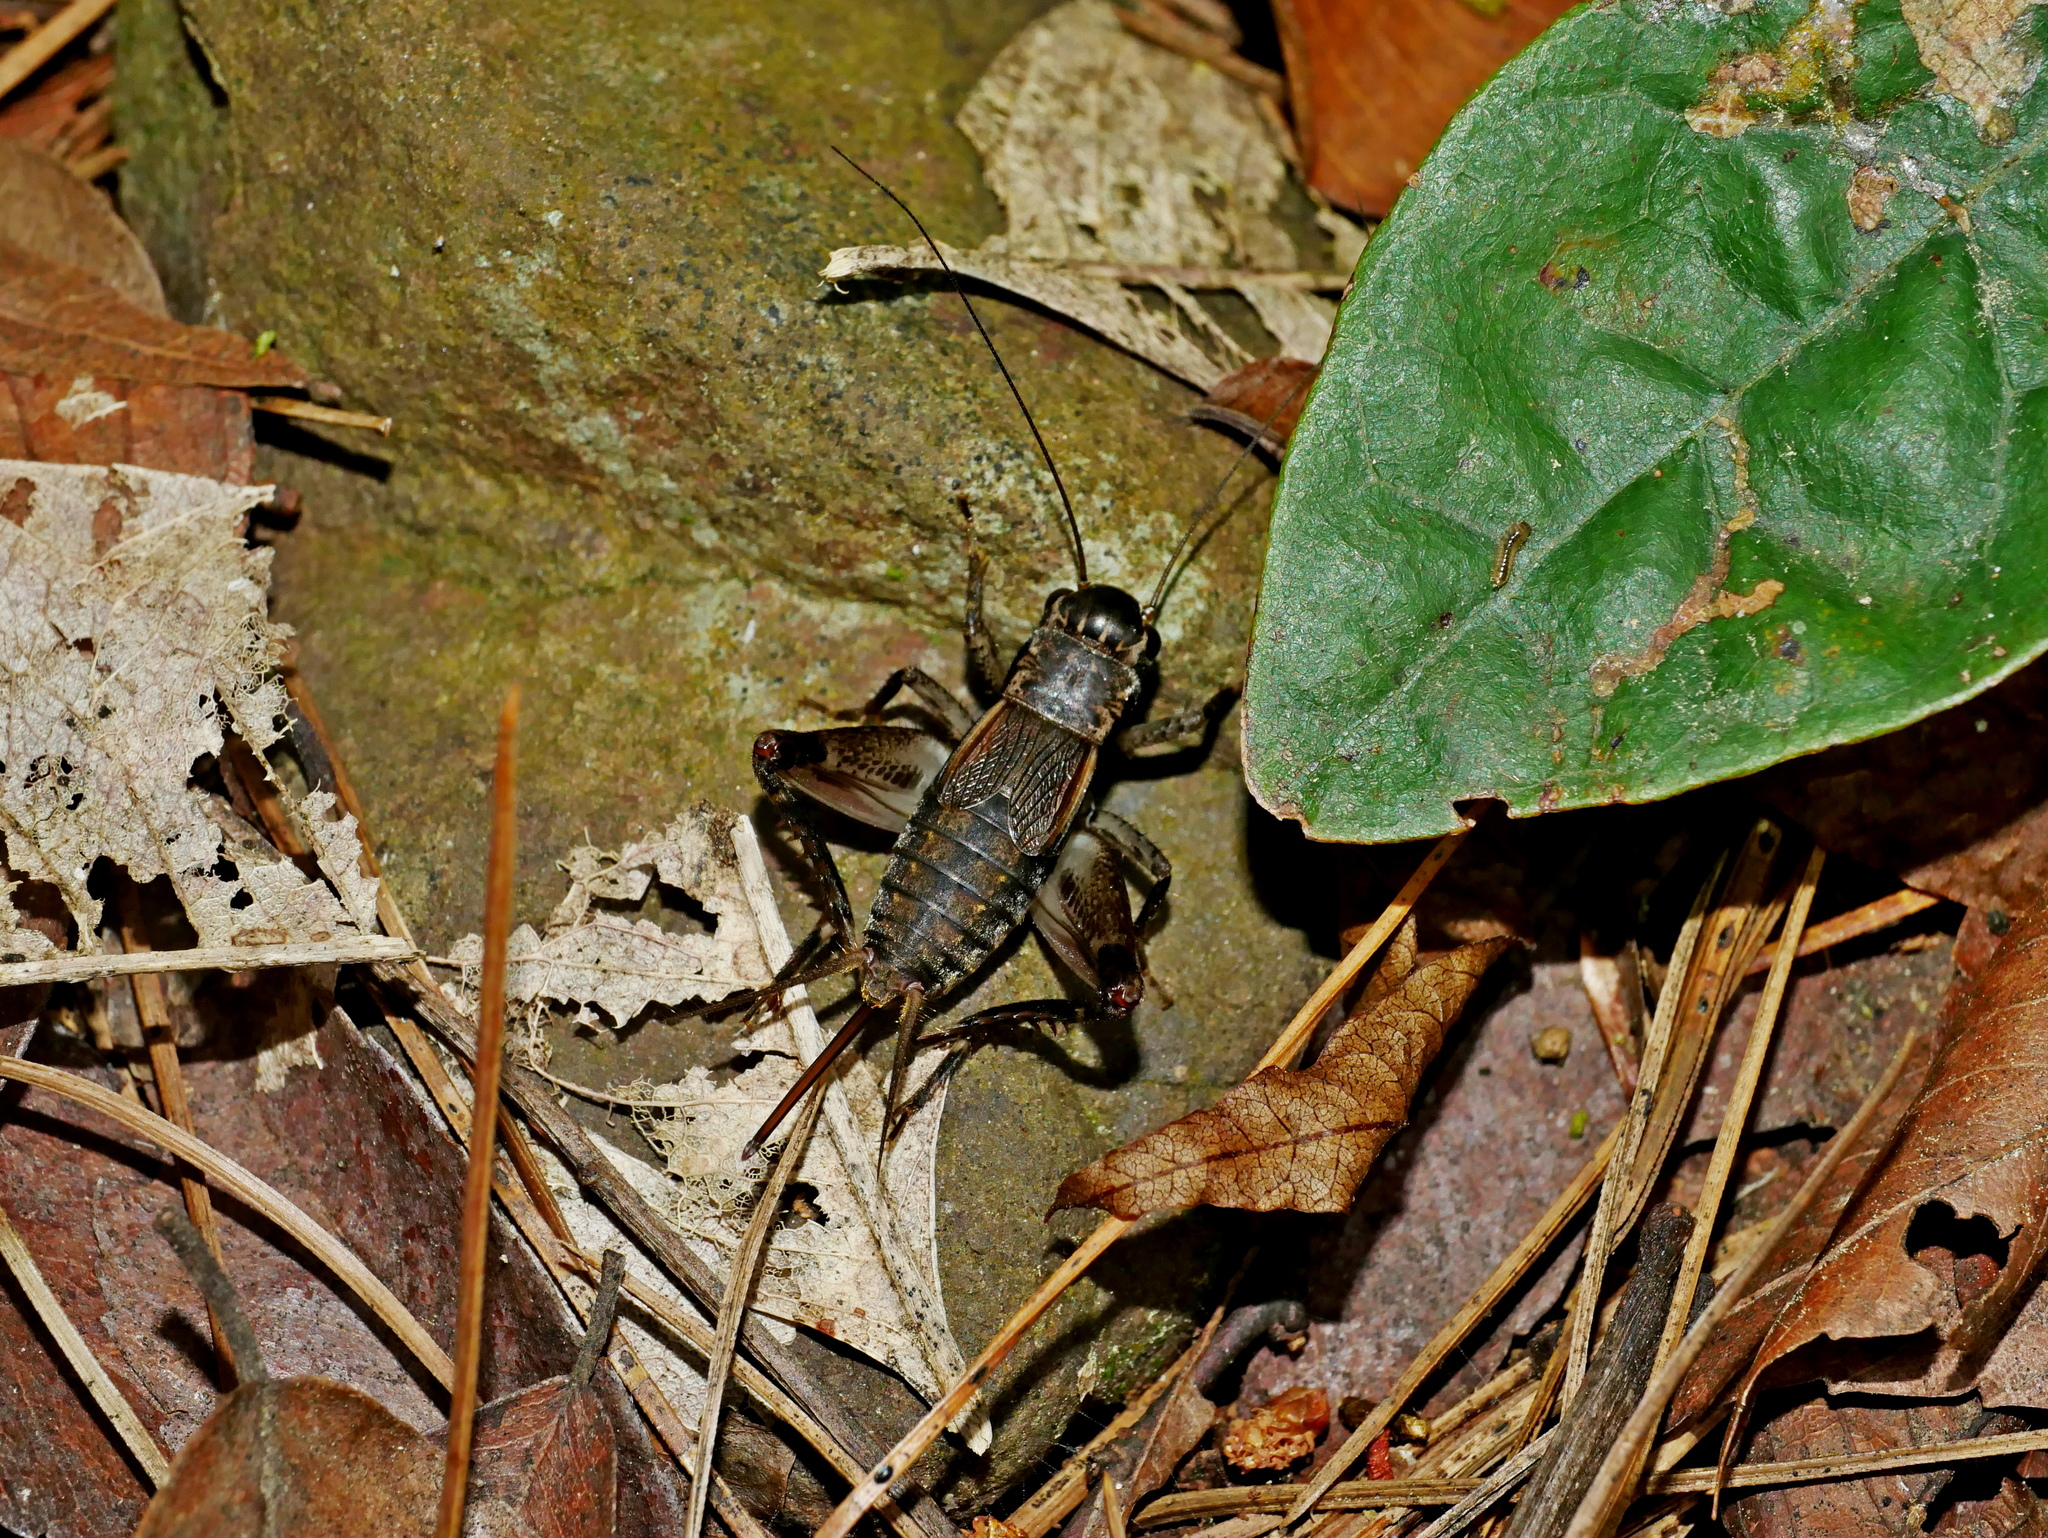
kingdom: Animalia
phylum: Arthropoda
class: Insecta
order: Orthoptera
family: Gryllidae
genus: Loxoblemmus
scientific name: Loxoblemmus appendicularis
